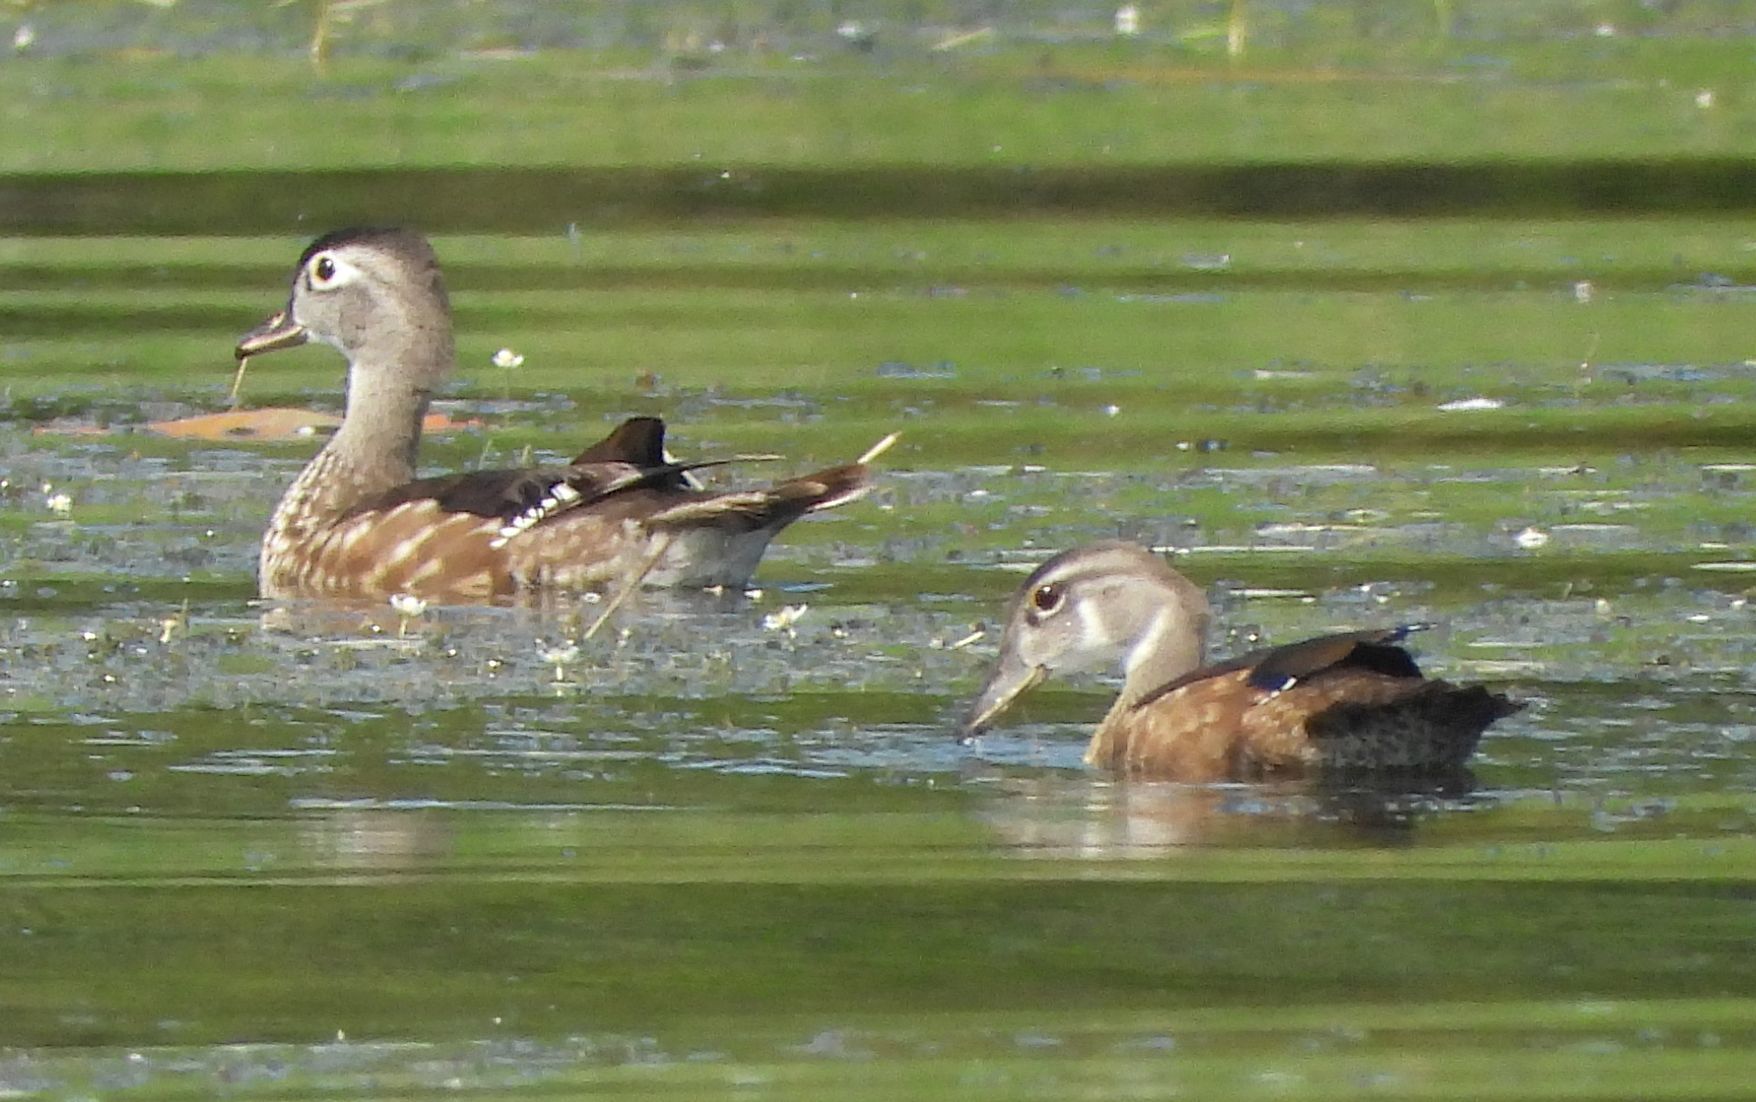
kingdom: Animalia
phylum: Chordata
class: Aves
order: Anseriformes
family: Anatidae
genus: Aix
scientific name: Aix sponsa
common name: Wood duck
